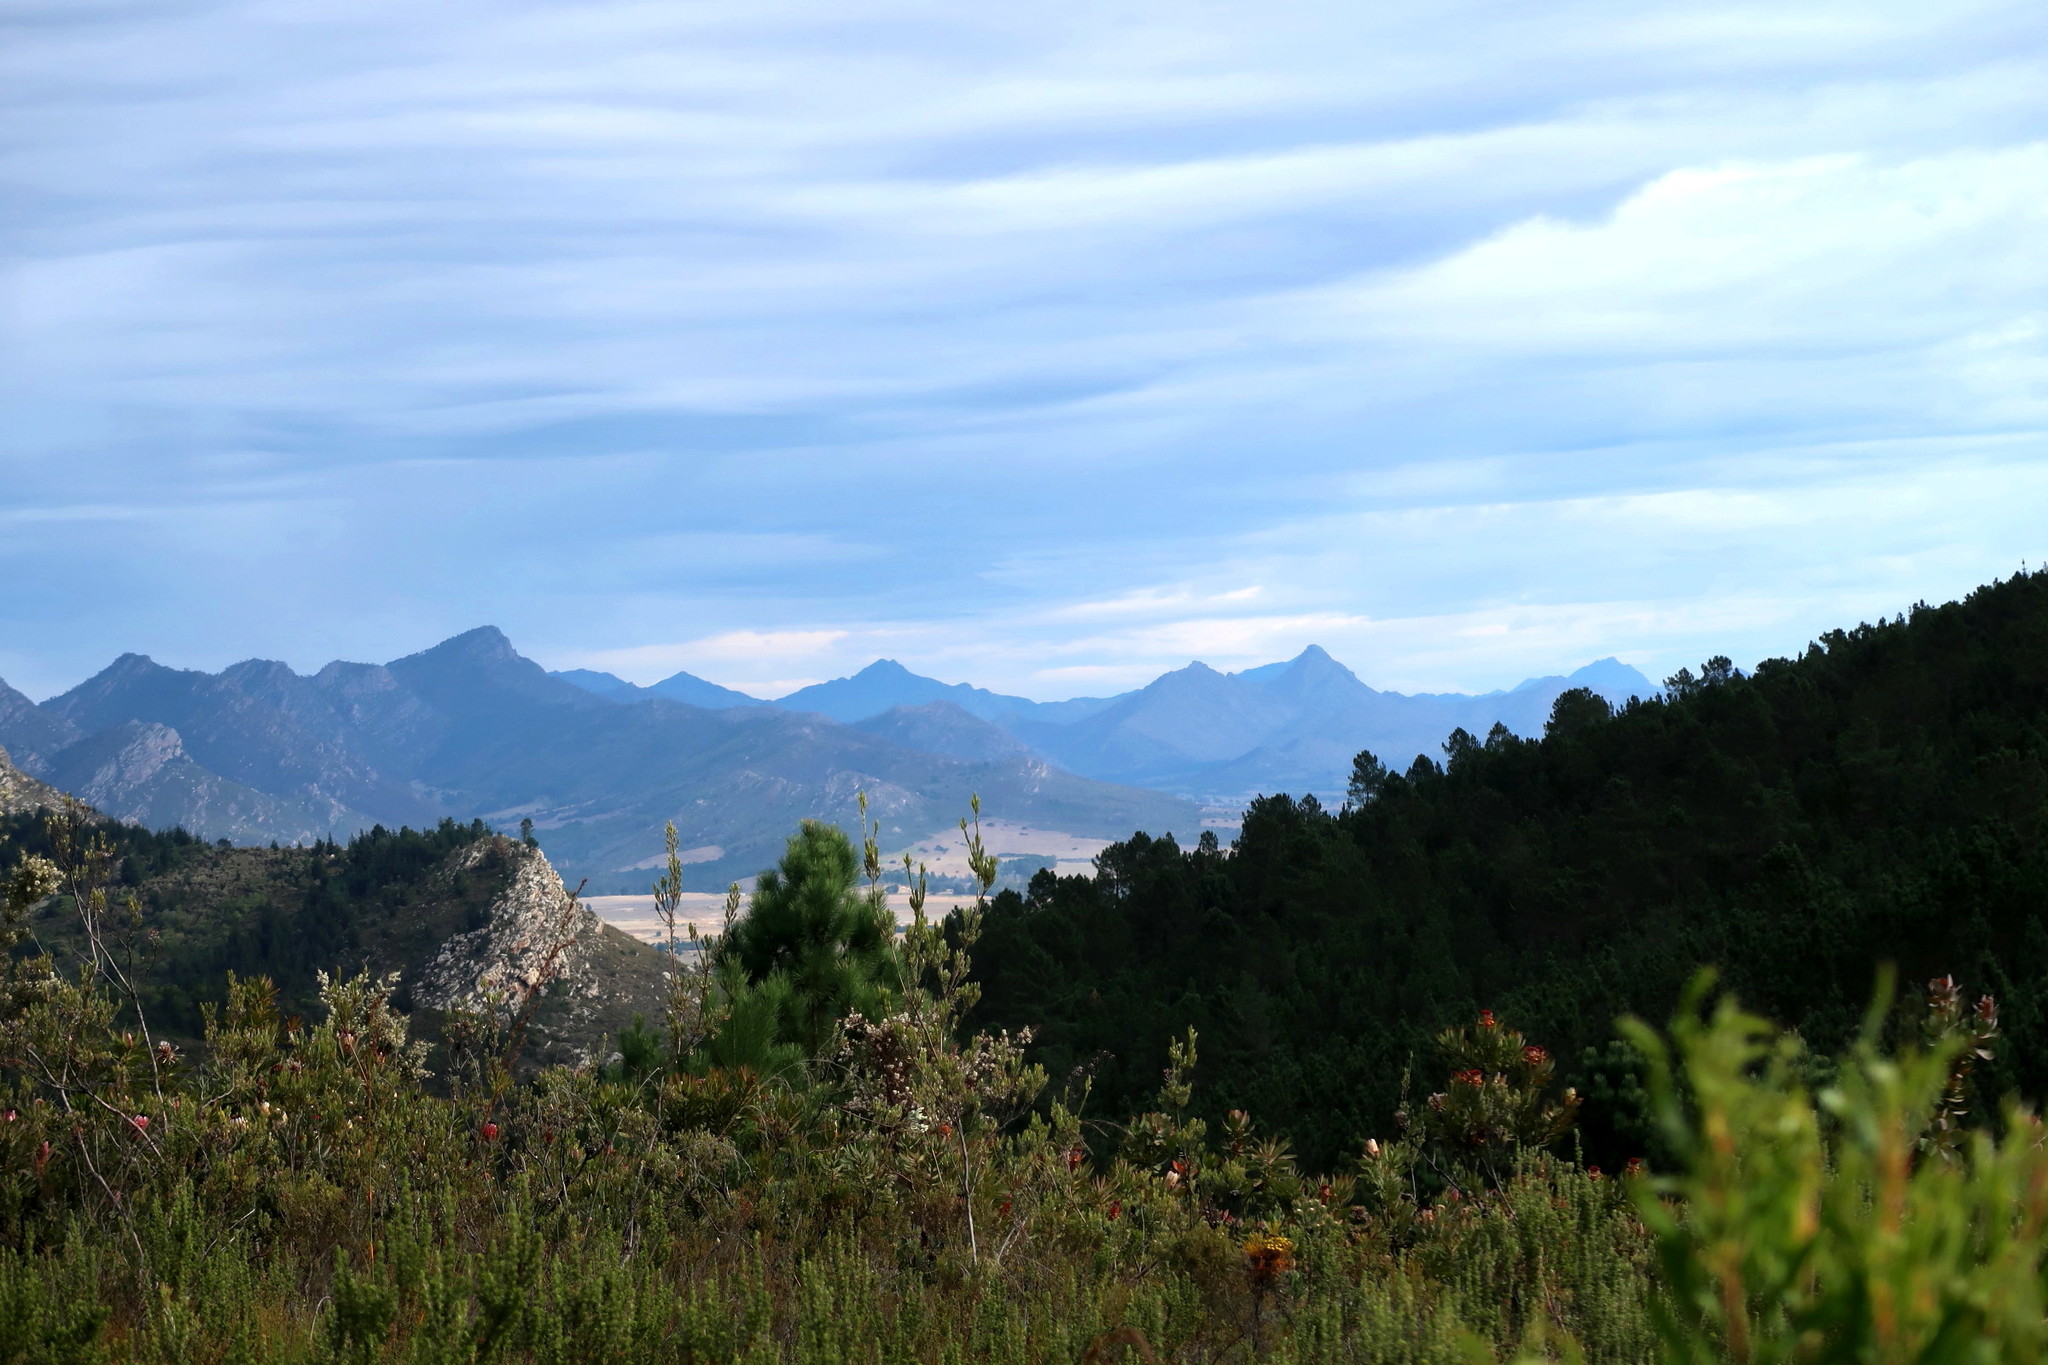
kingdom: Plantae
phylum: Tracheophyta
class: Pinopsida
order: Pinales
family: Pinaceae
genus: Pinus
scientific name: Pinus pinaster
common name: Maritime pine
